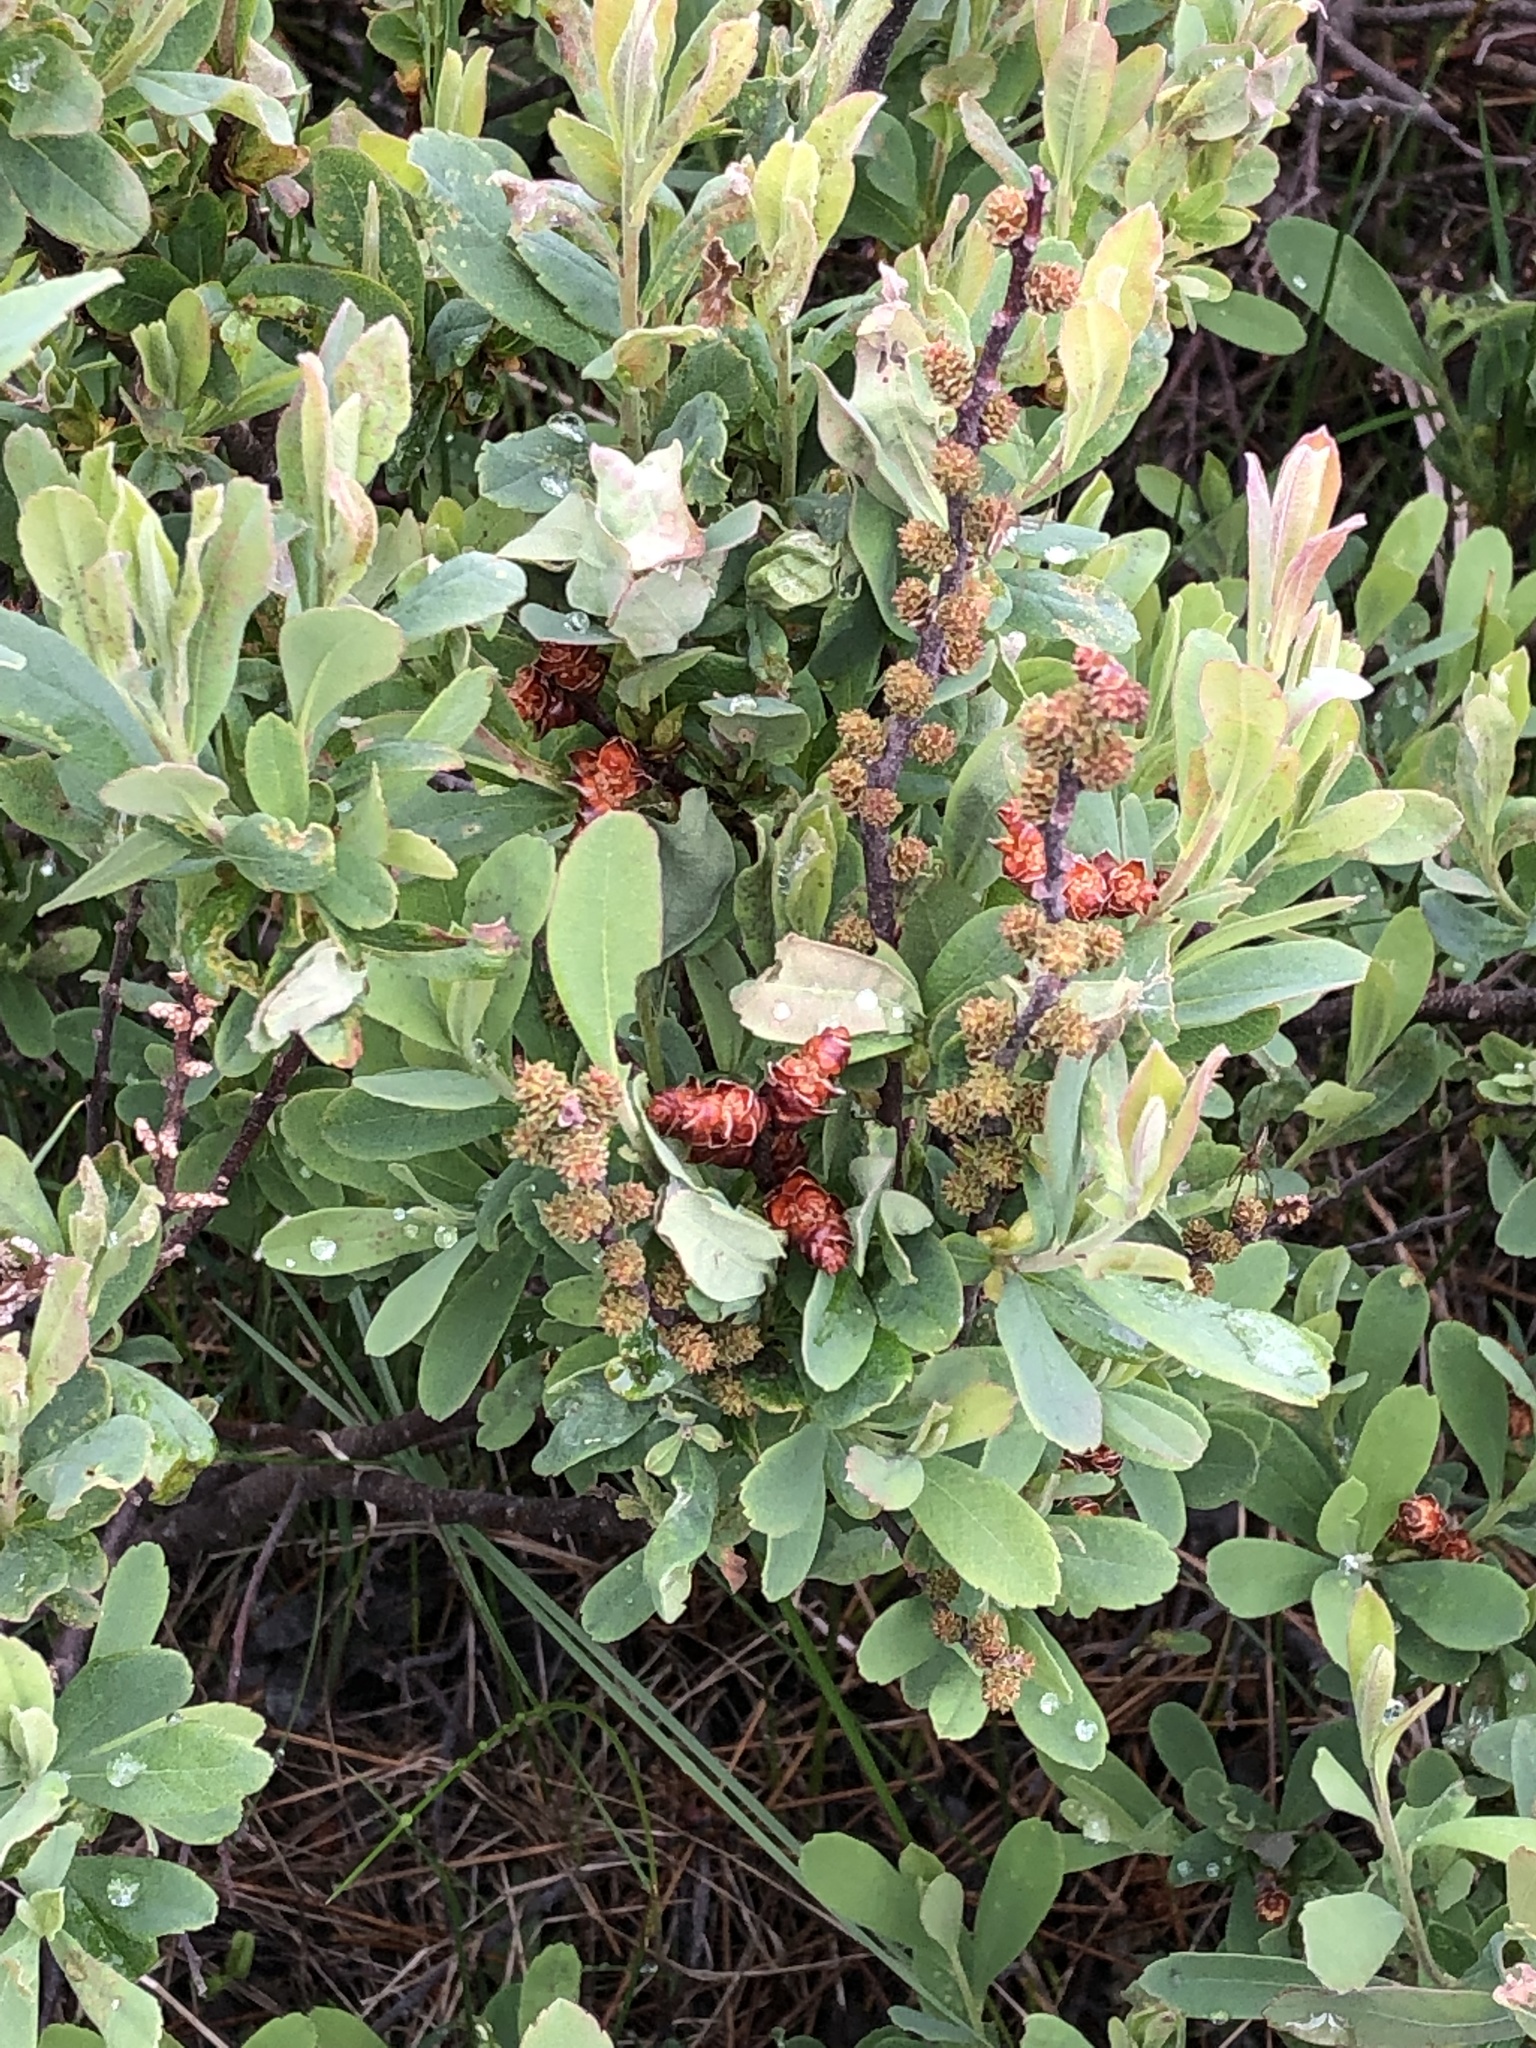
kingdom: Plantae
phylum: Tracheophyta
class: Magnoliopsida
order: Fagales
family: Myricaceae
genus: Myrica
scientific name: Myrica gale
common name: Sweet gale
